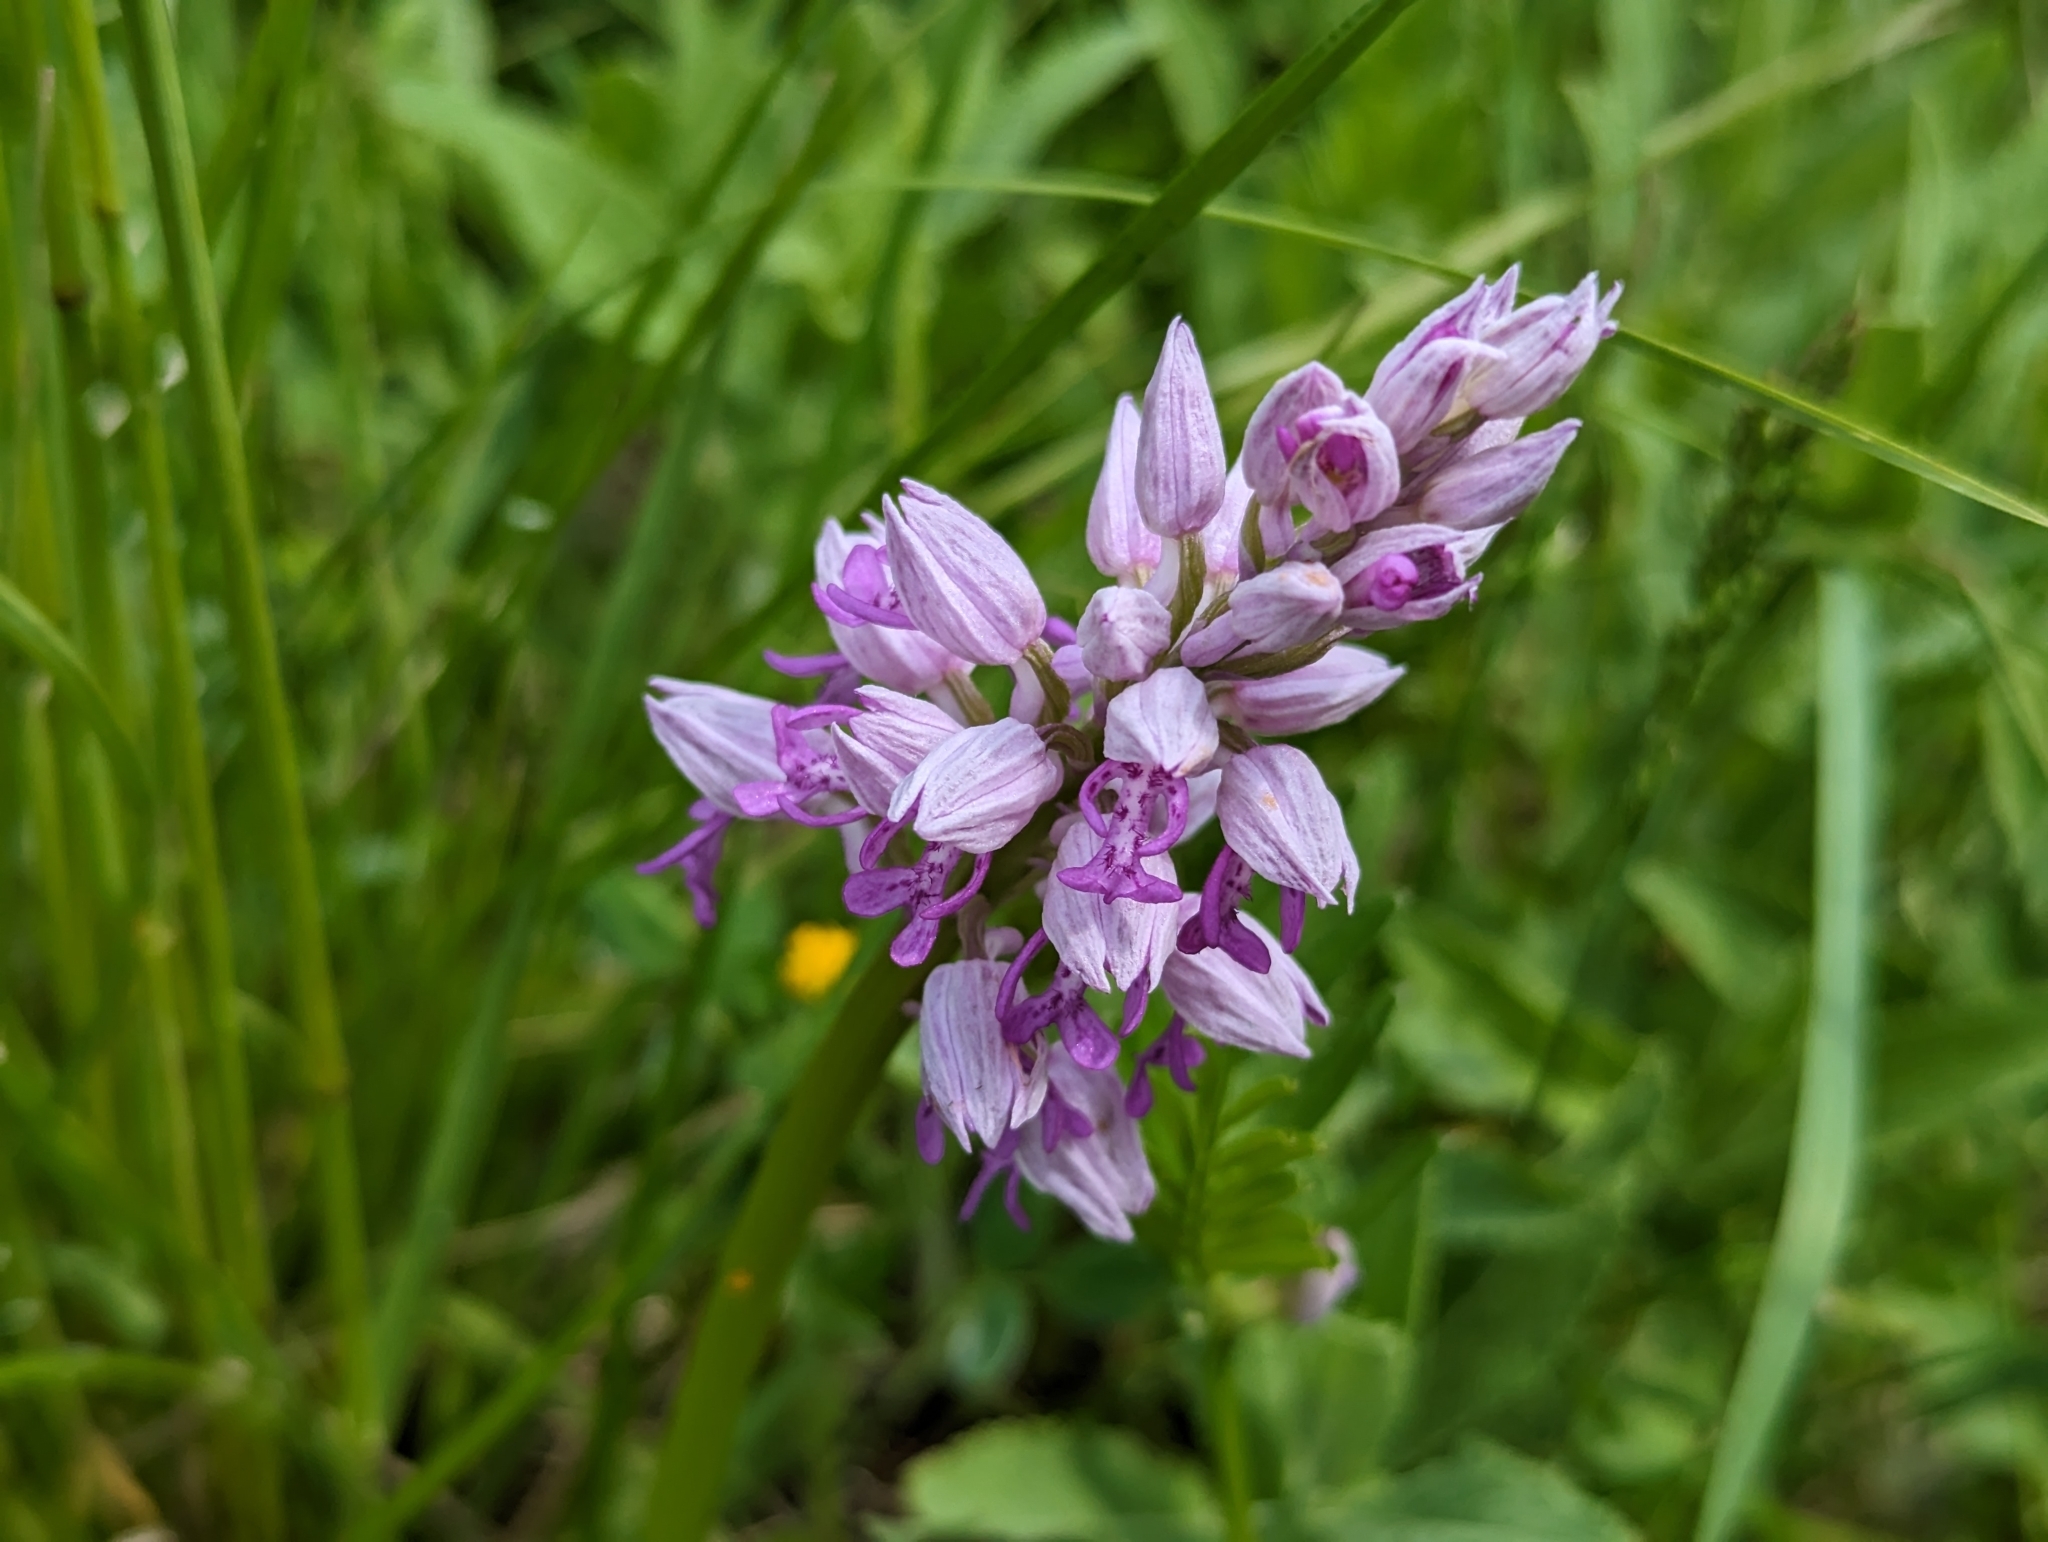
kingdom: Plantae
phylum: Tracheophyta
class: Liliopsida
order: Asparagales
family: Orchidaceae
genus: Orchis
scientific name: Orchis militaris
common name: Military orchid
